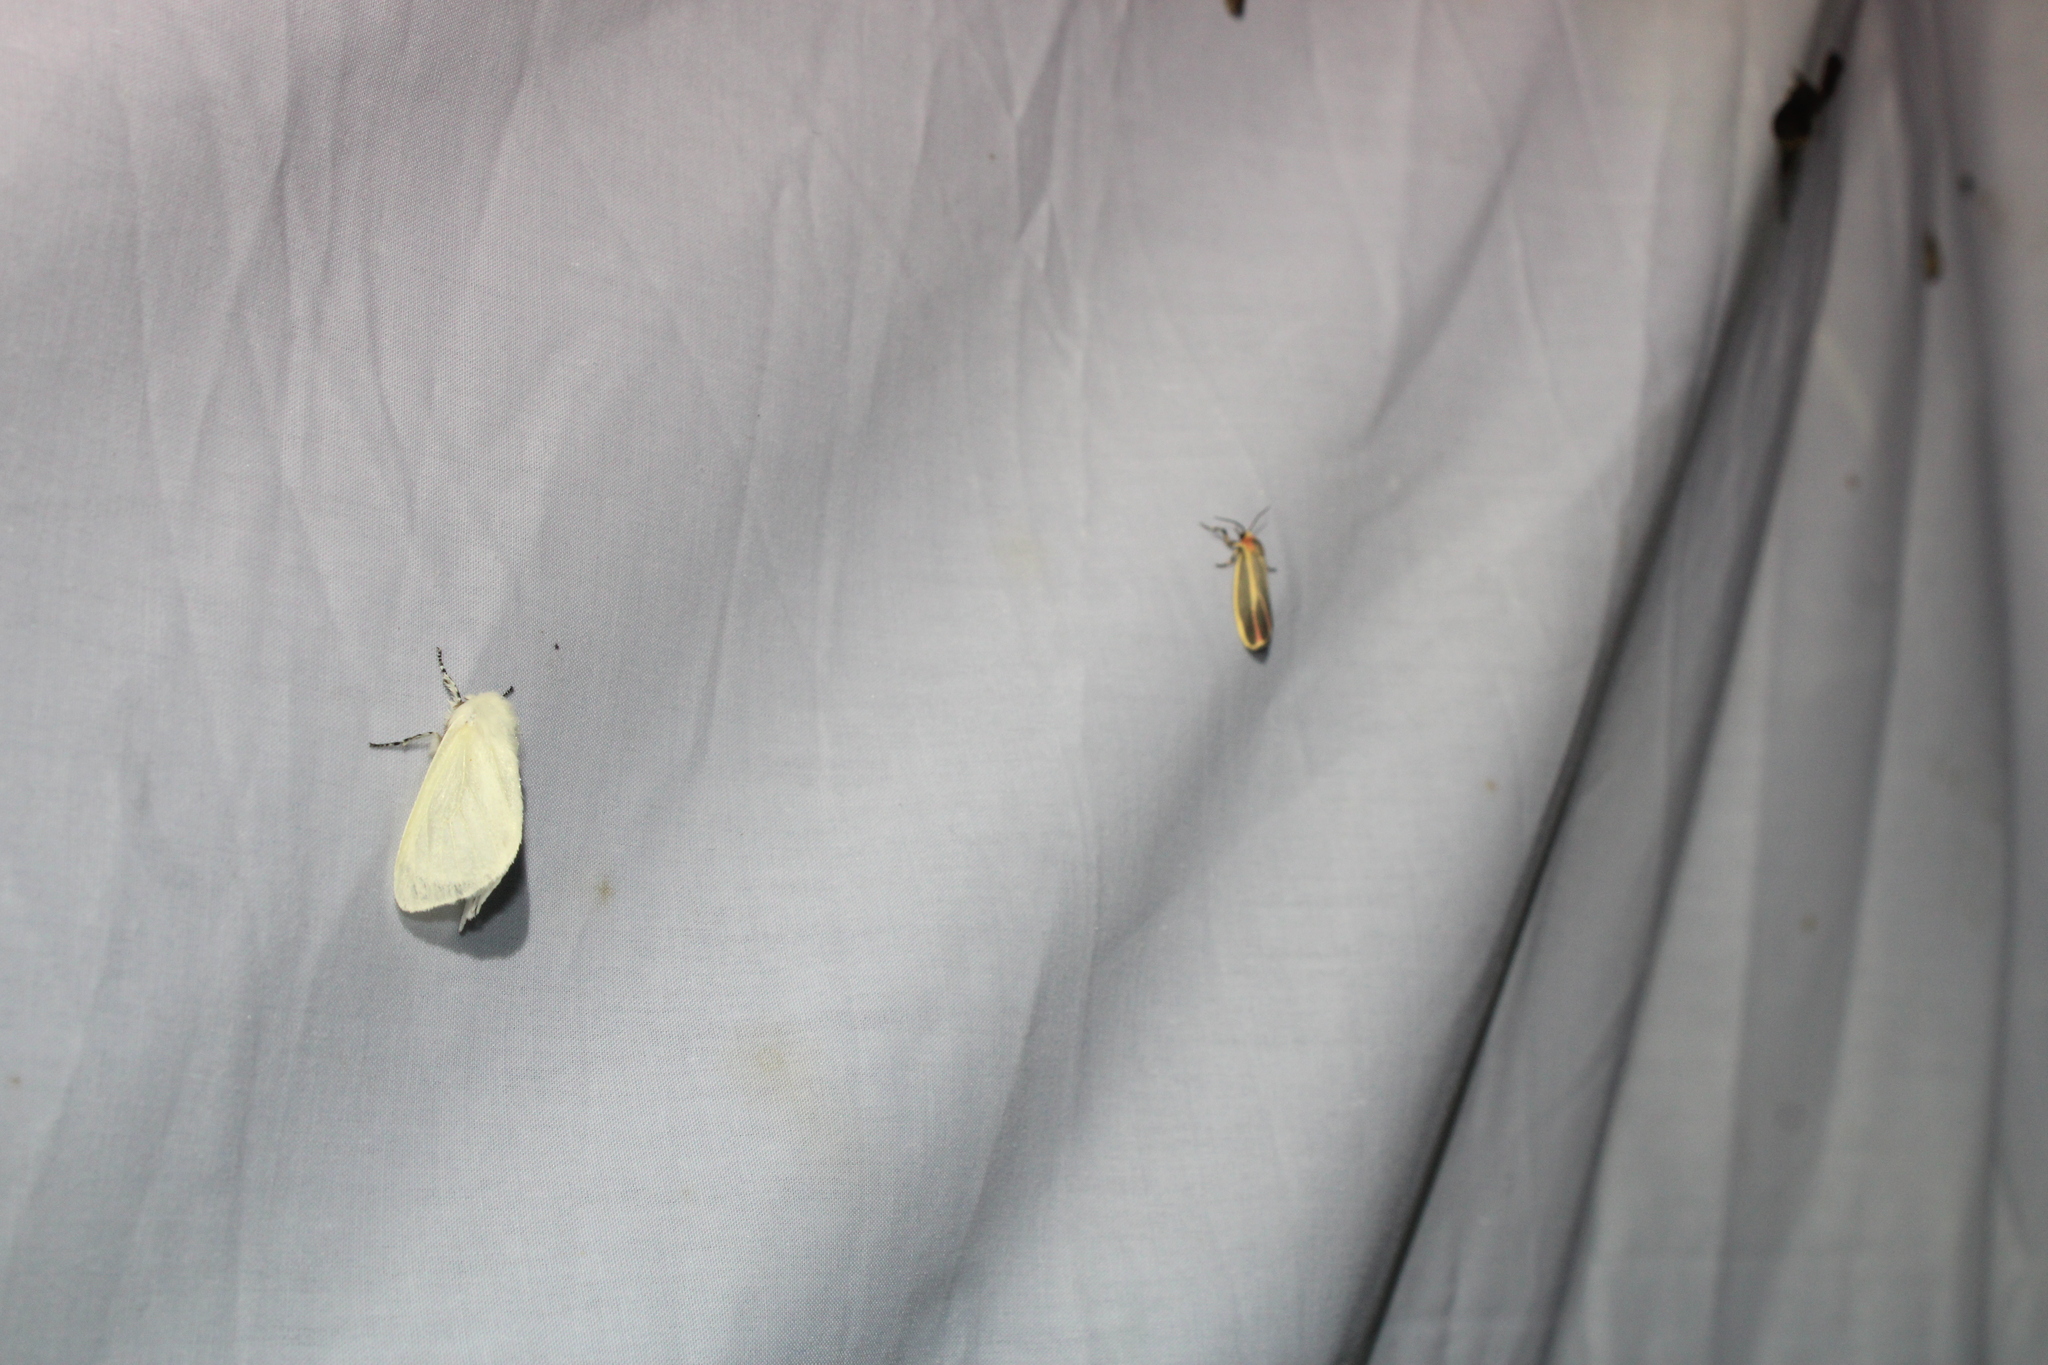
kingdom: Animalia
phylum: Arthropoda
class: Insecta
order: Lepidoptera
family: Erebidae
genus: Leucoma
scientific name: Leucoma salicis
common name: White satin moth
